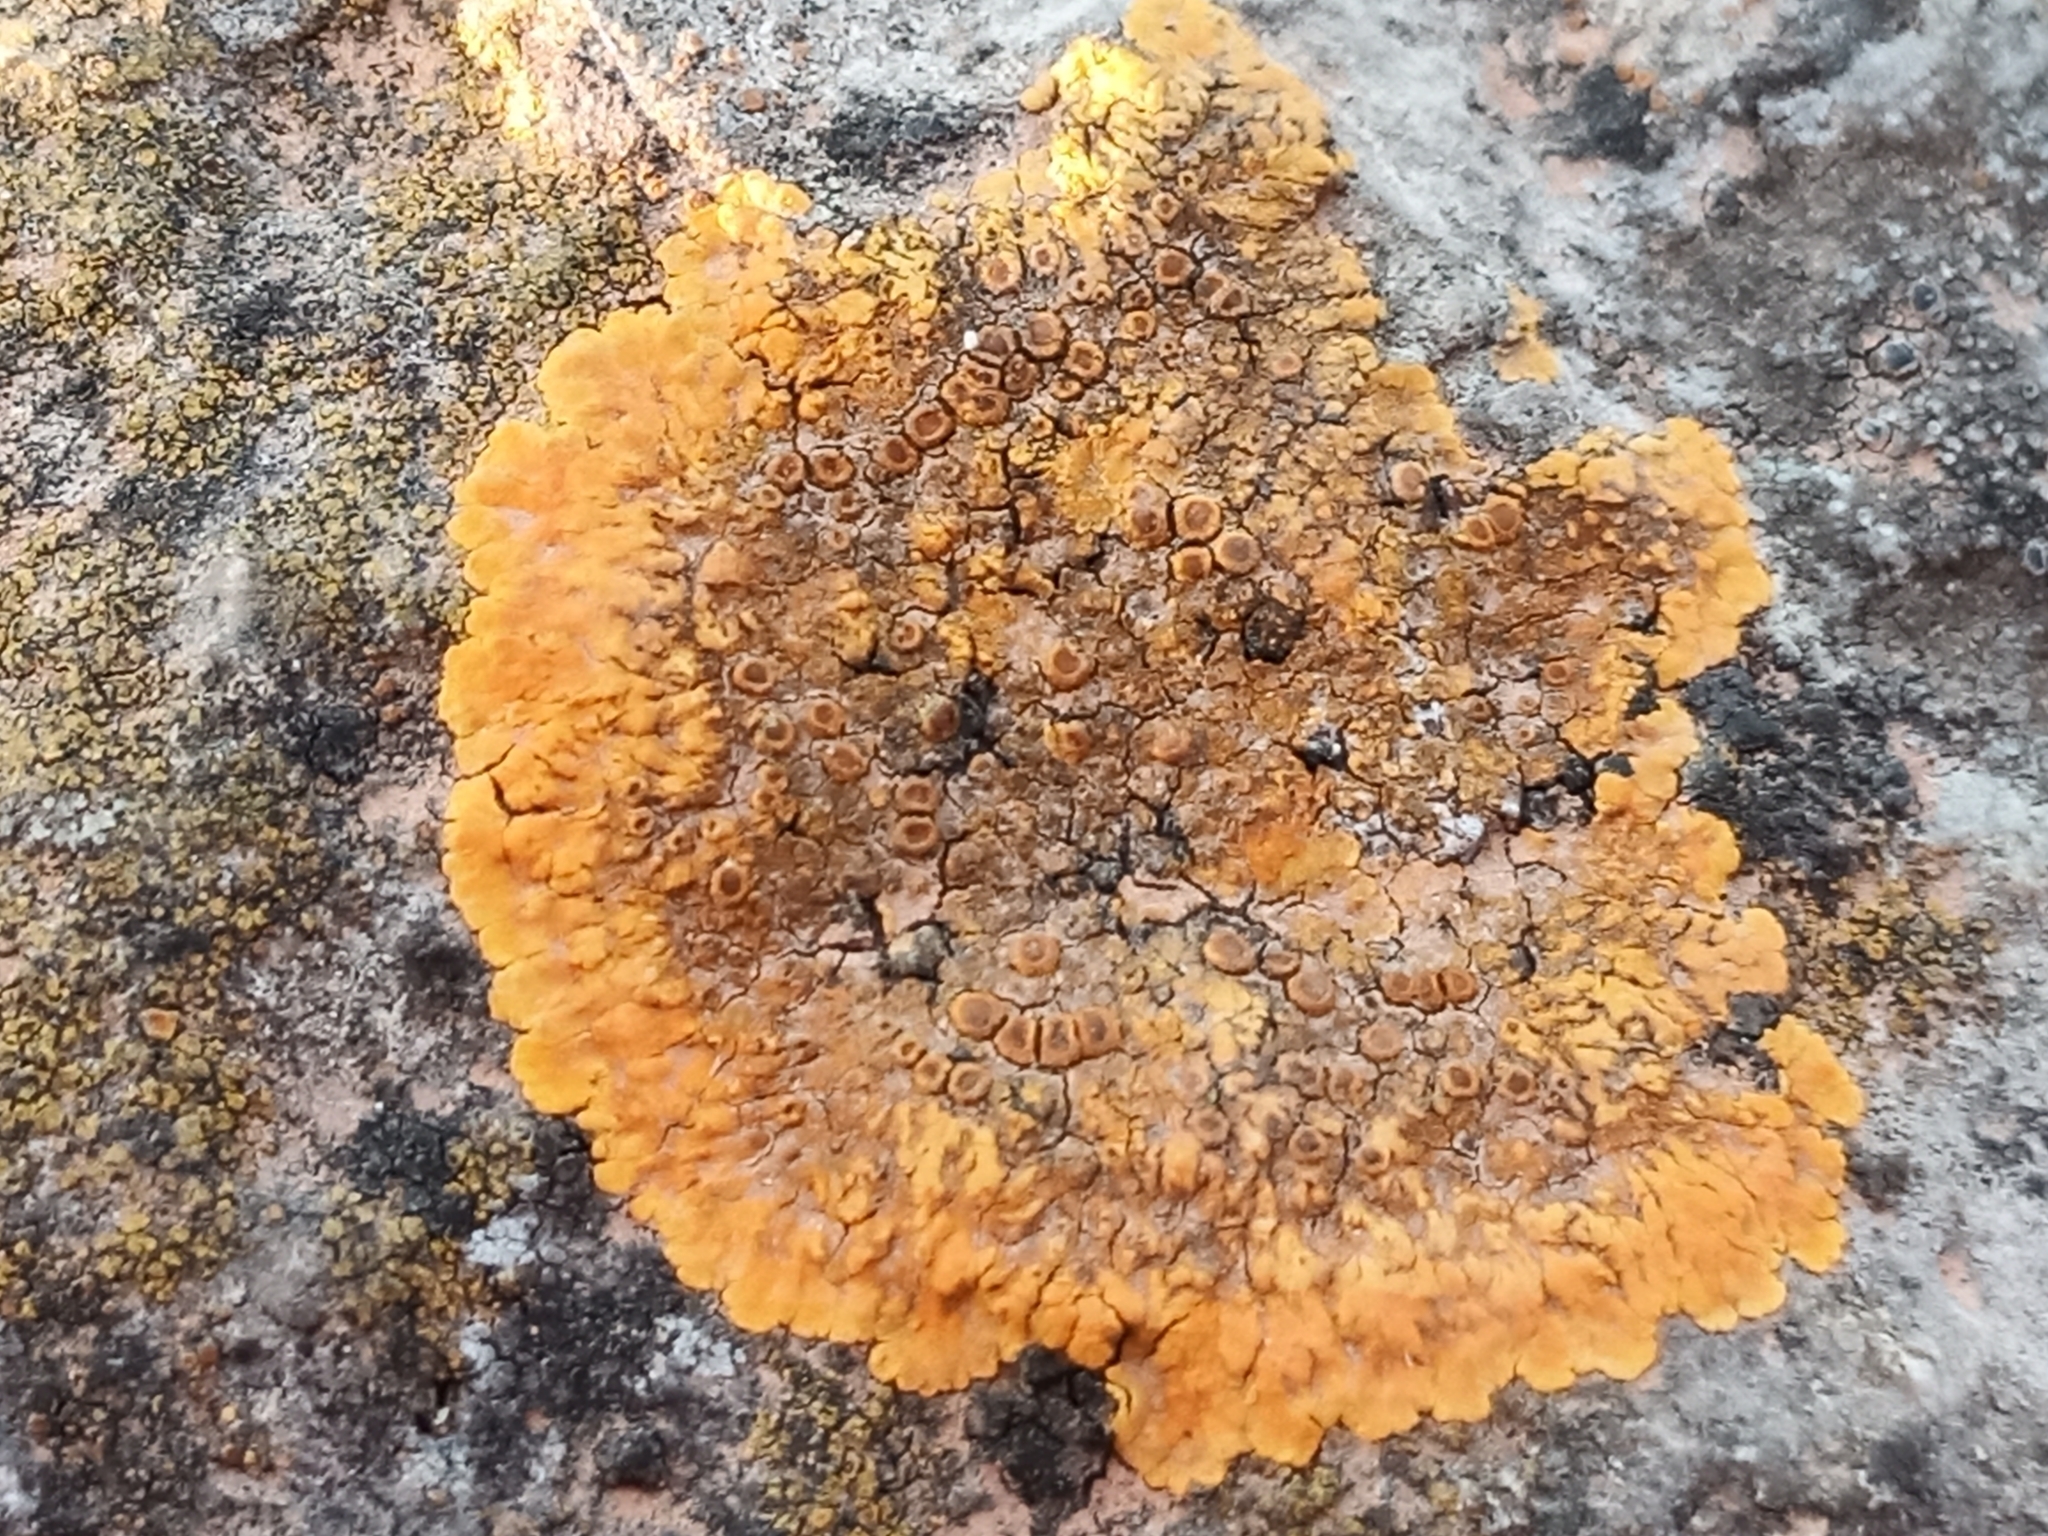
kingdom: Fungi
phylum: Ascomycota
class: Lecanoromycetes
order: Teloschistales
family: Teloschistaceae
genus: Variospora
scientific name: Variospora aurantia
